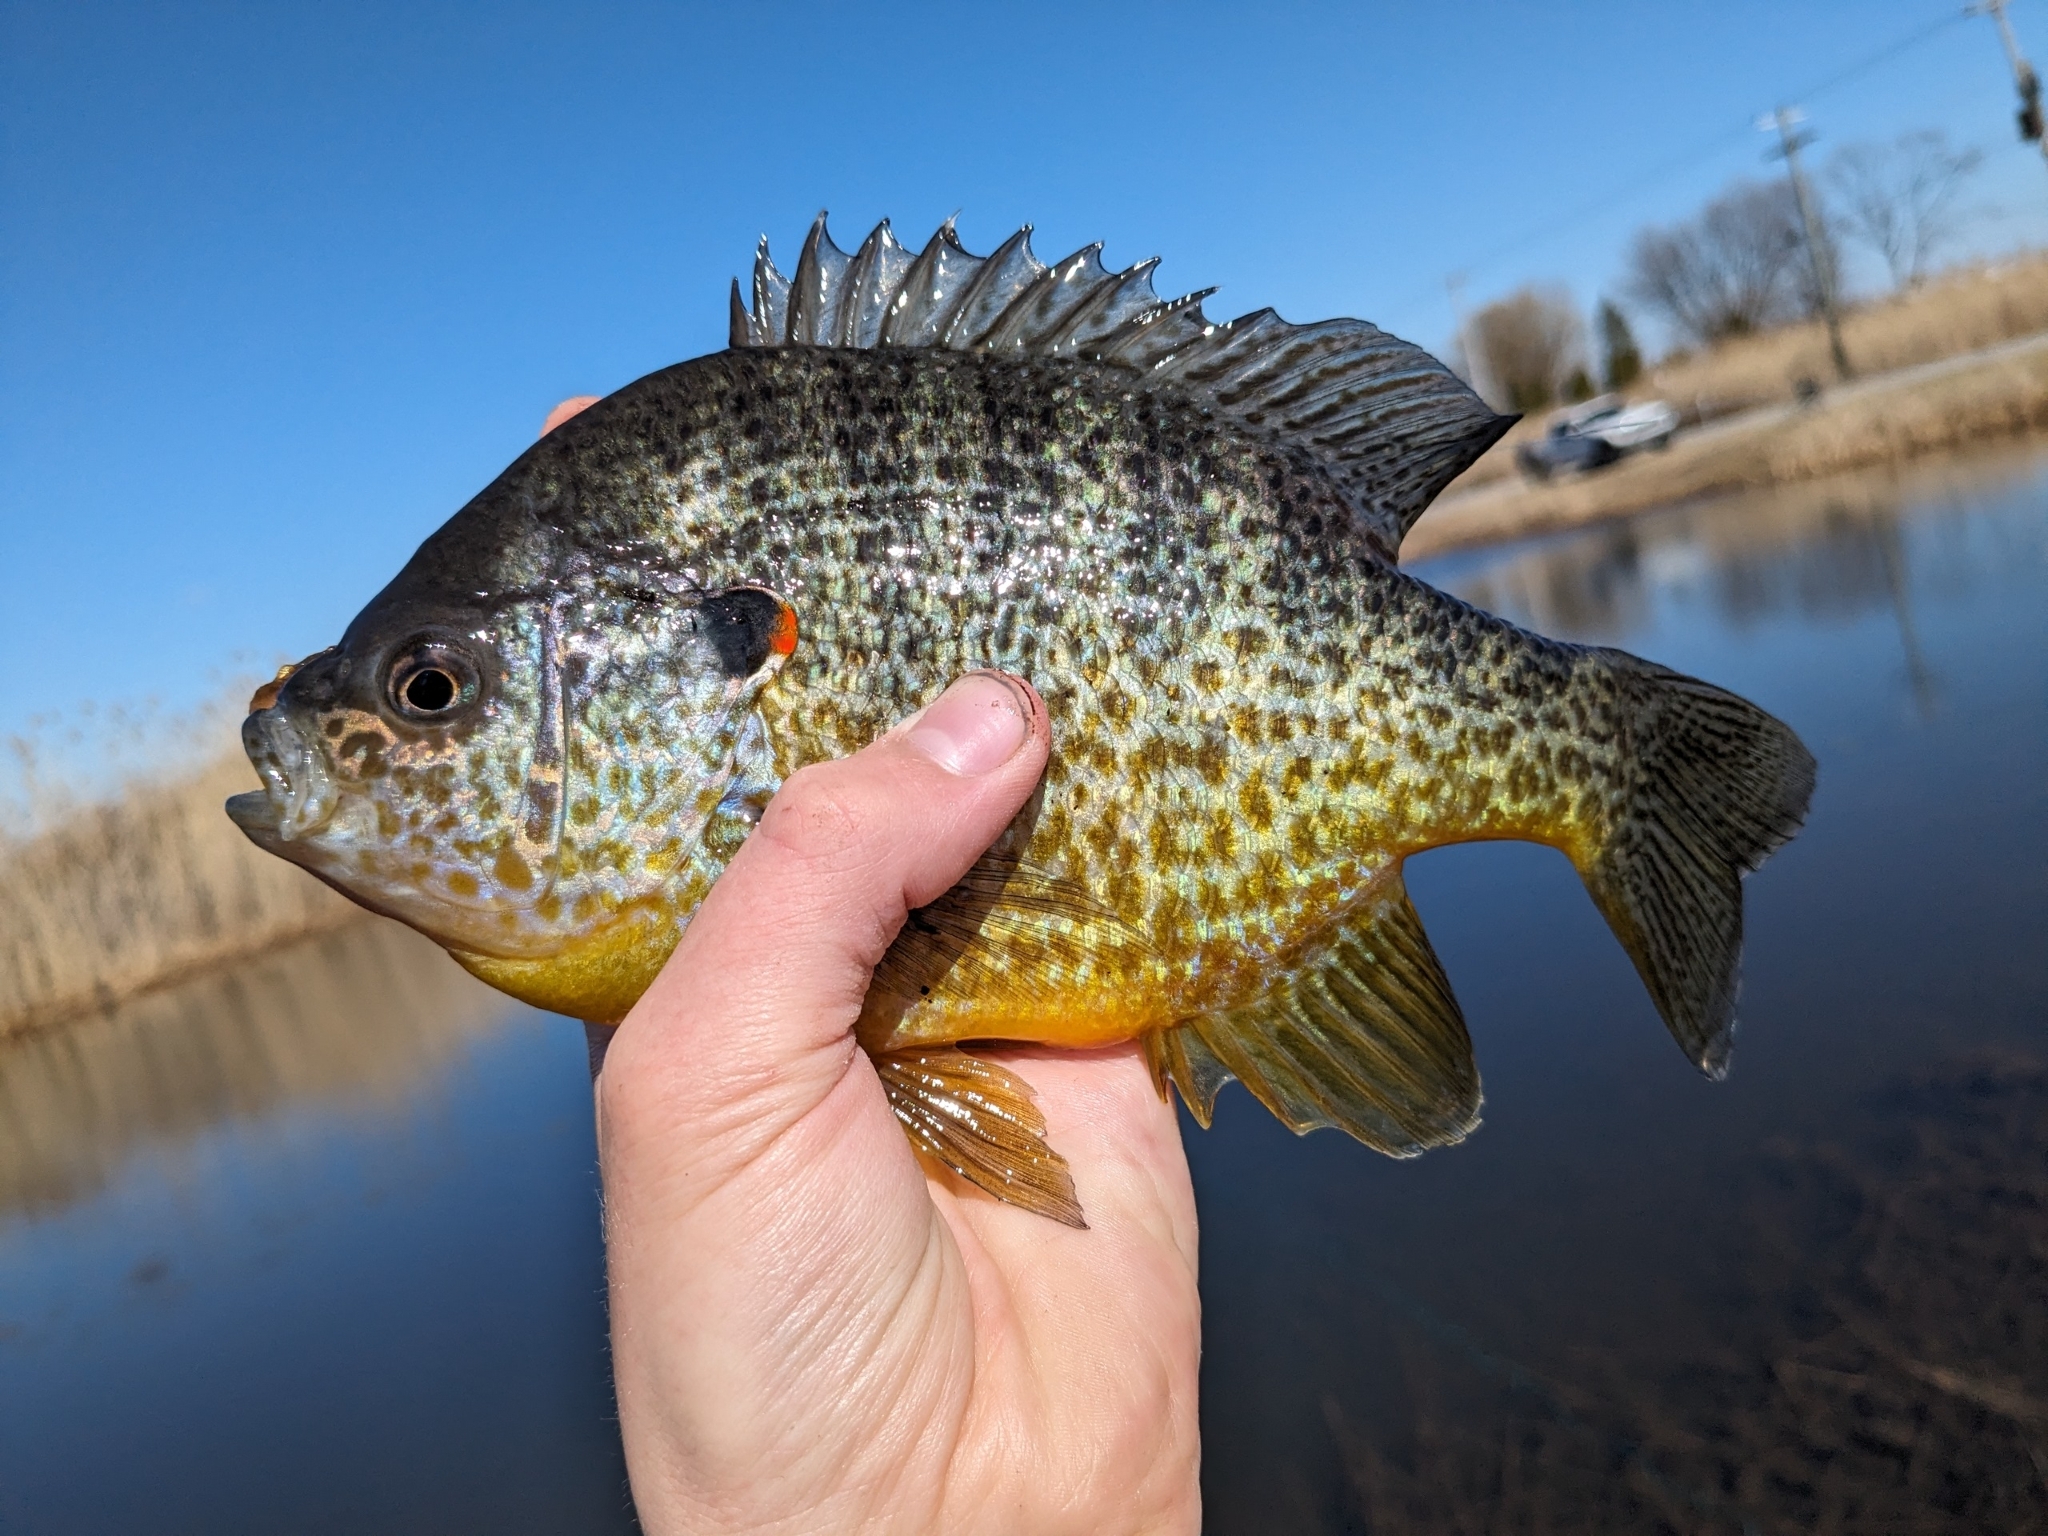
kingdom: Animalia
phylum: Chordata
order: Perciformes
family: Centrarchidae
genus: Lepomis
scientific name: Lepomis gibbosus
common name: Pumpkinseed
